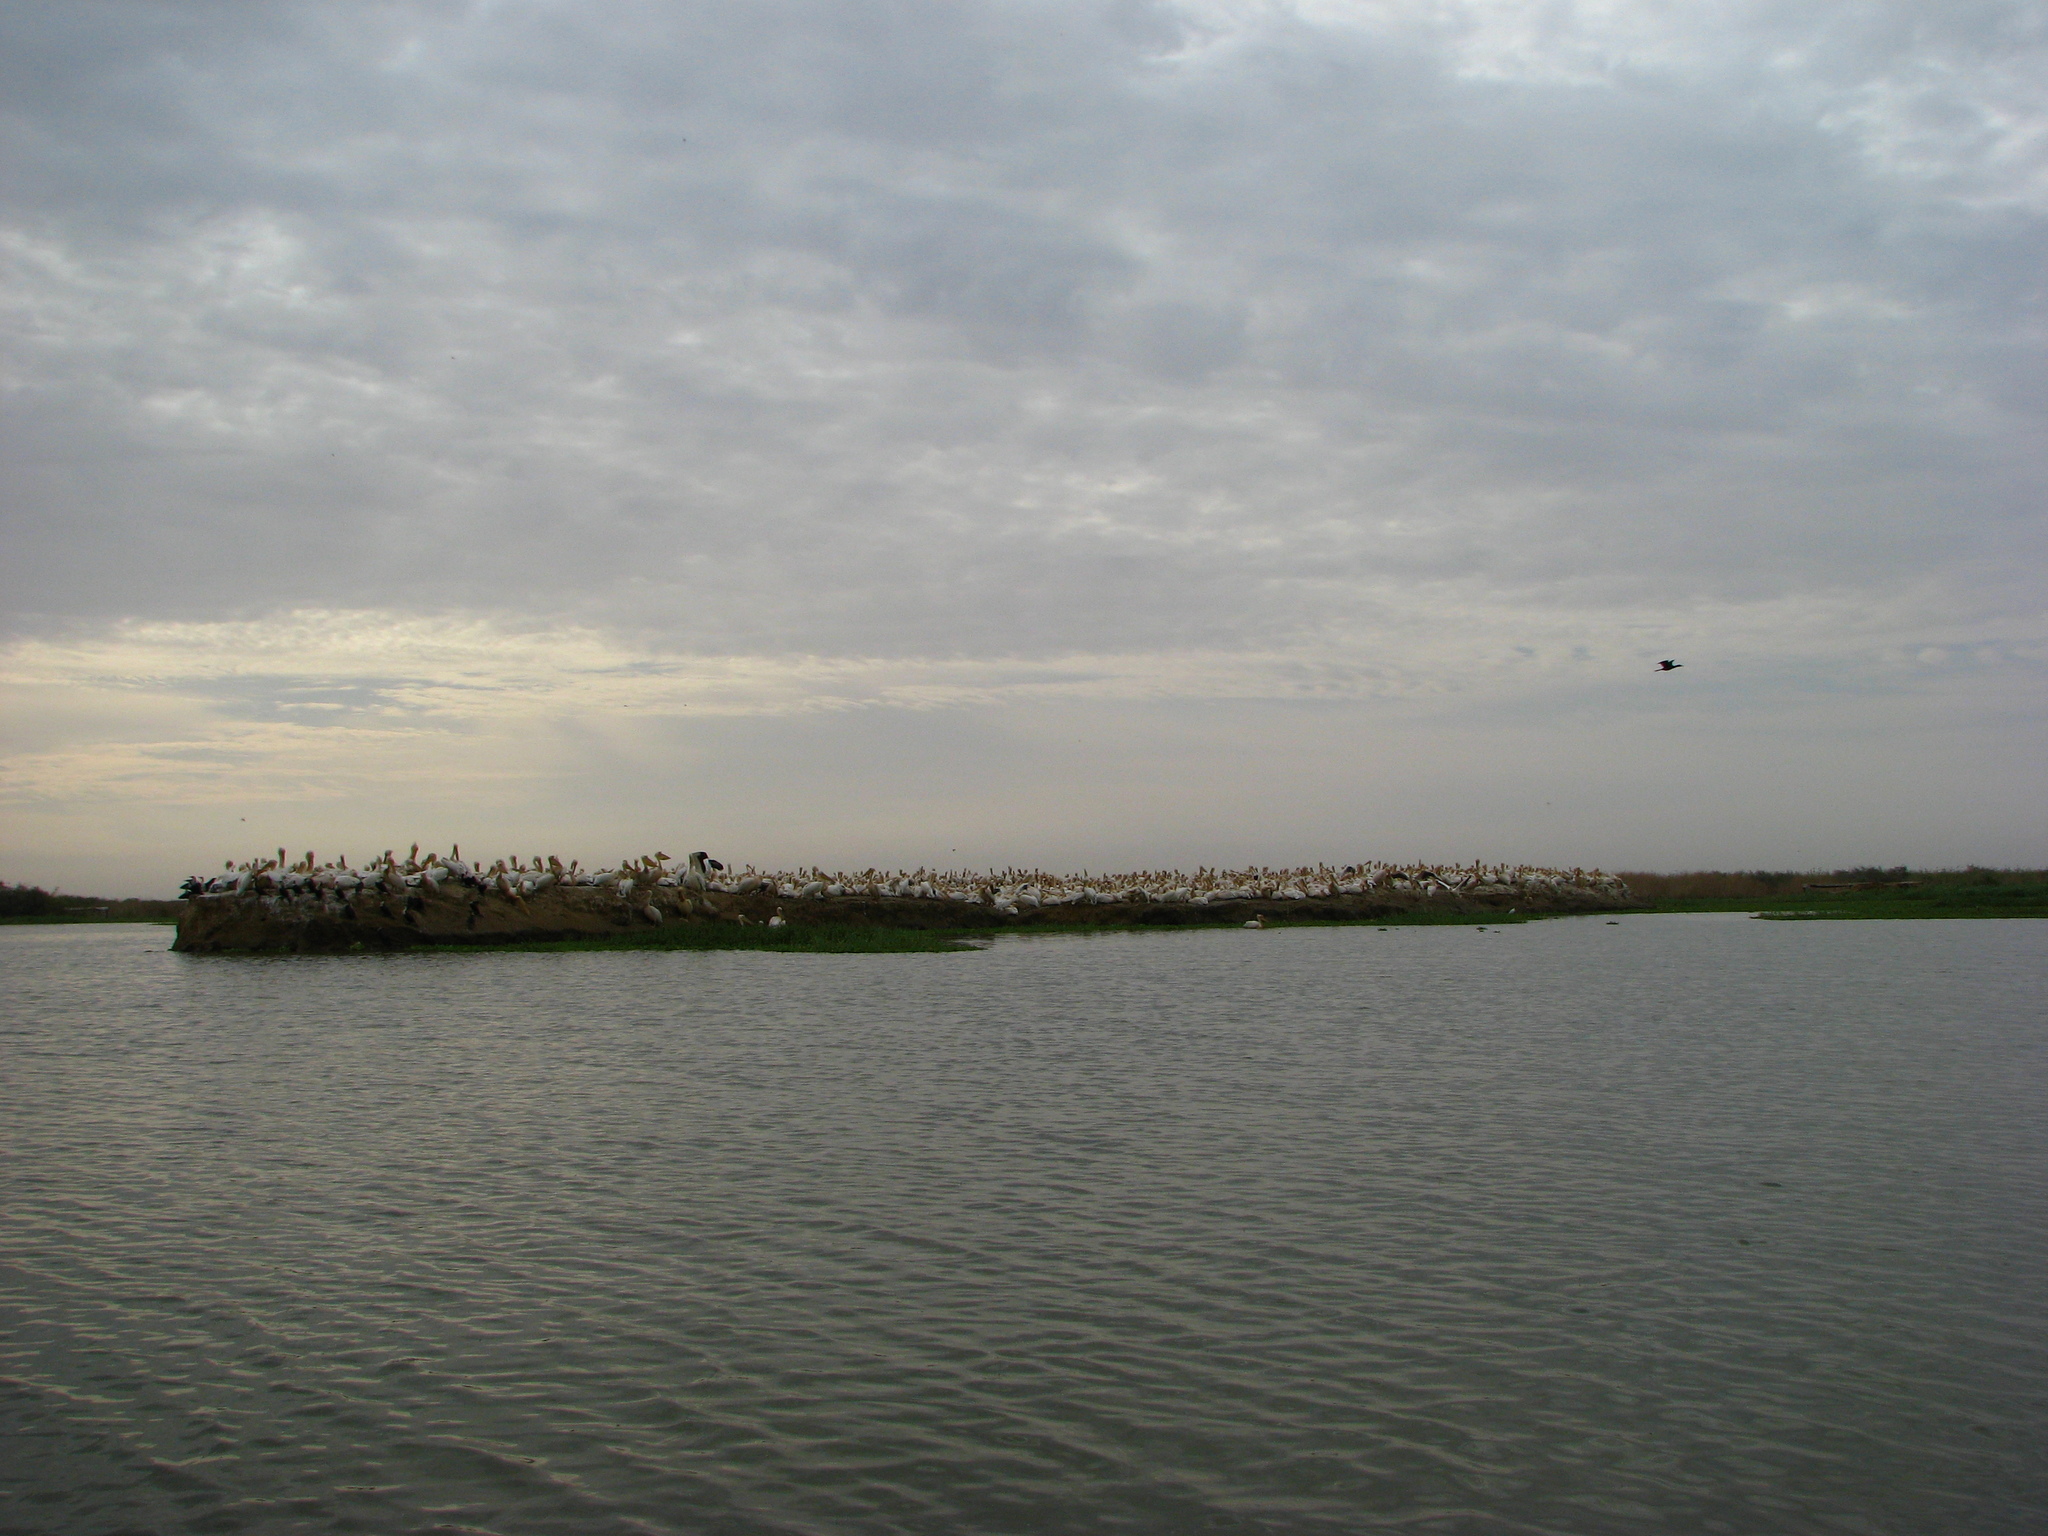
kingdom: Animalia
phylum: Chordata
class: Aves
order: Pelecaniformes
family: Pelecanidae
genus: Pelecanus
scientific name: Pelecanus onocrotalus
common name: Great white pelican
